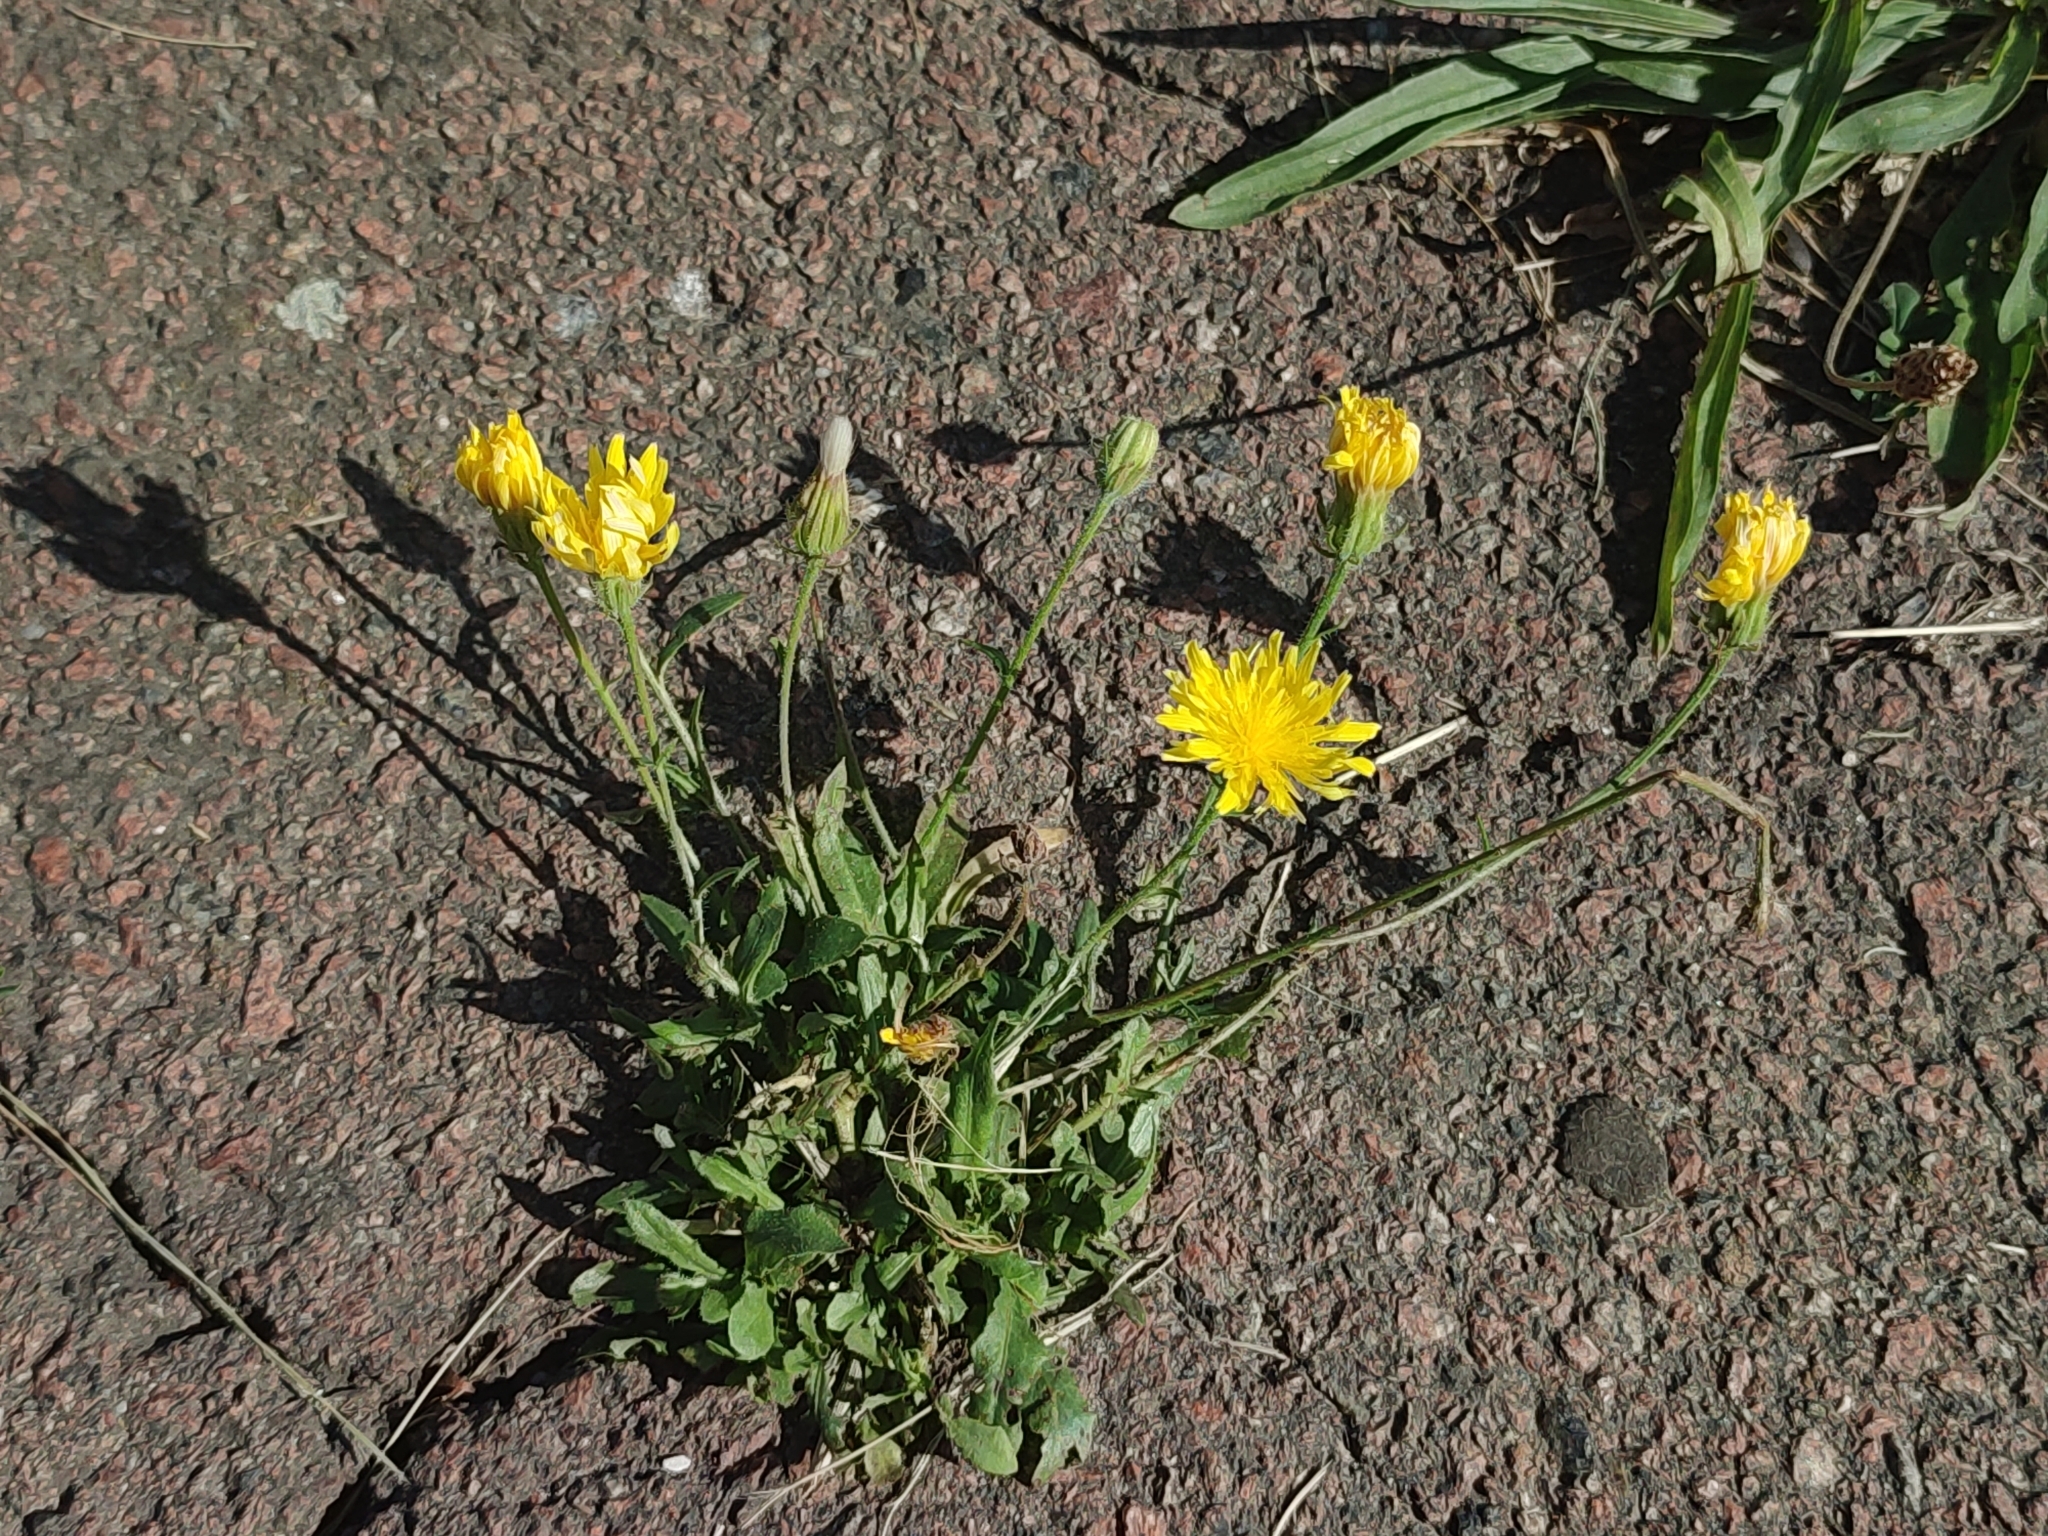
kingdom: Plantae
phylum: Tracheophyta
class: Magnoliopsida
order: Asterales
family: Asteraceae
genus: Crepis
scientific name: Crepis foetida
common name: Stinking hawk's-beard
